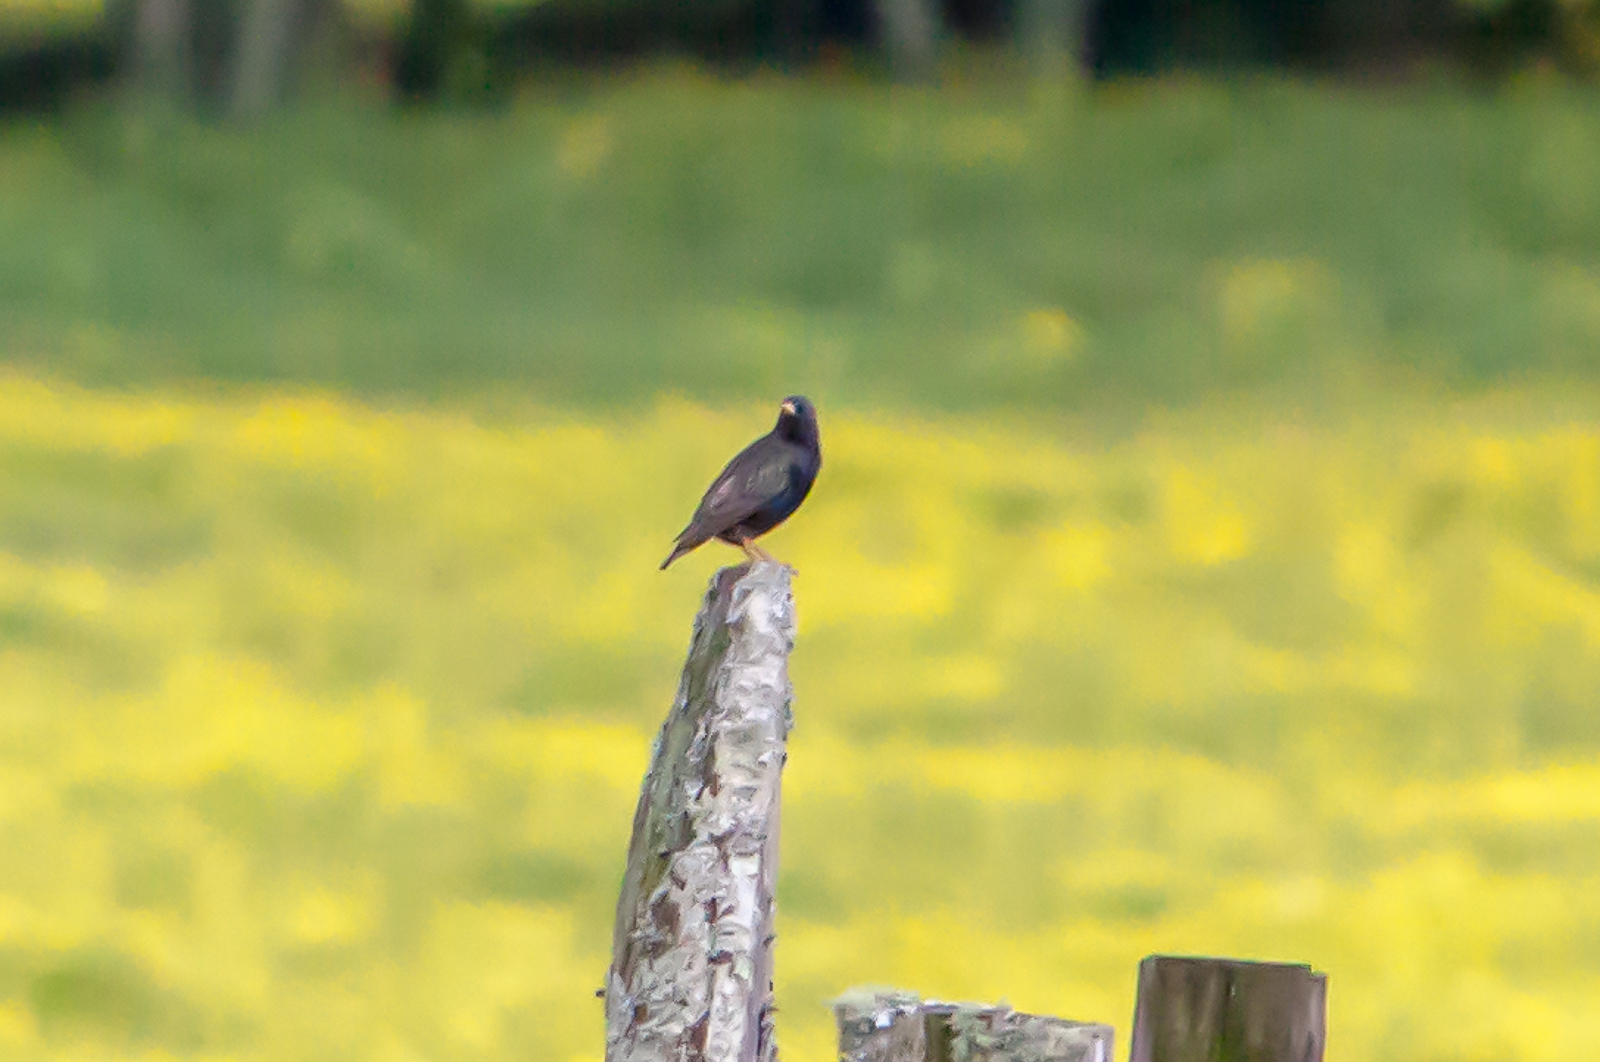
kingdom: Animalia
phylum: Chordata
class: Aves
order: Passeriformes
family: Sturnidae
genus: Sturnus
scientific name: Sturnus vulgaris
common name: Common starling
